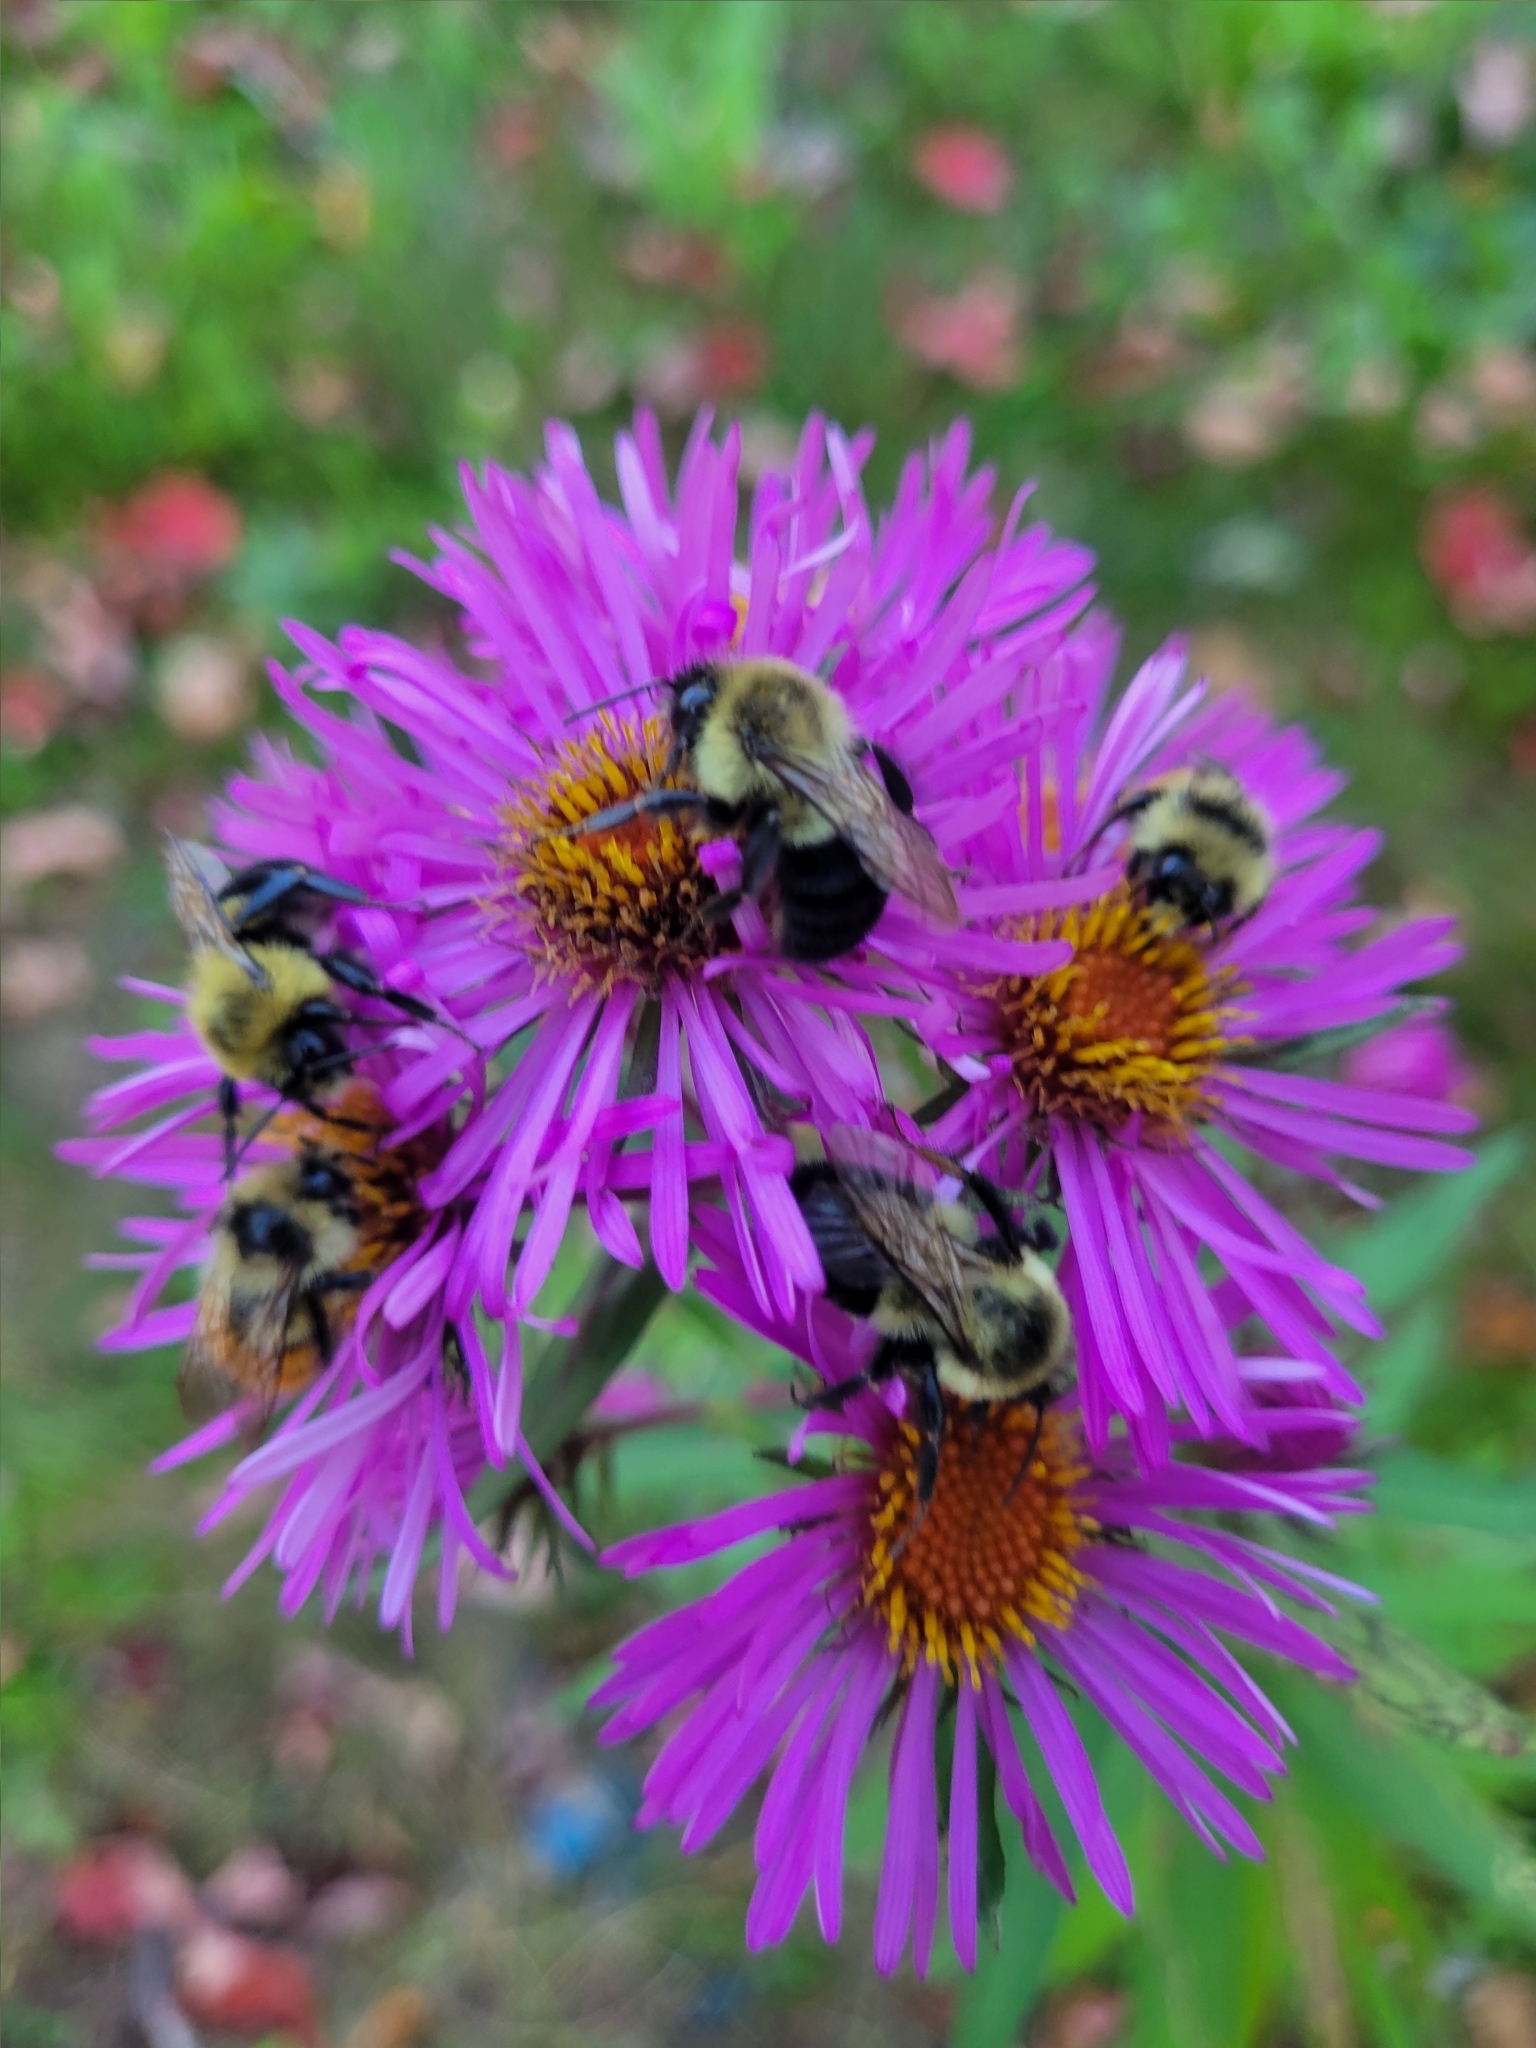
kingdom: Animalia
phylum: Arthropoda
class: Insecta
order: Hymenoptera
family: Apidae
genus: Bombus
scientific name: Bombus impatiens
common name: Common eastern bumble bee
